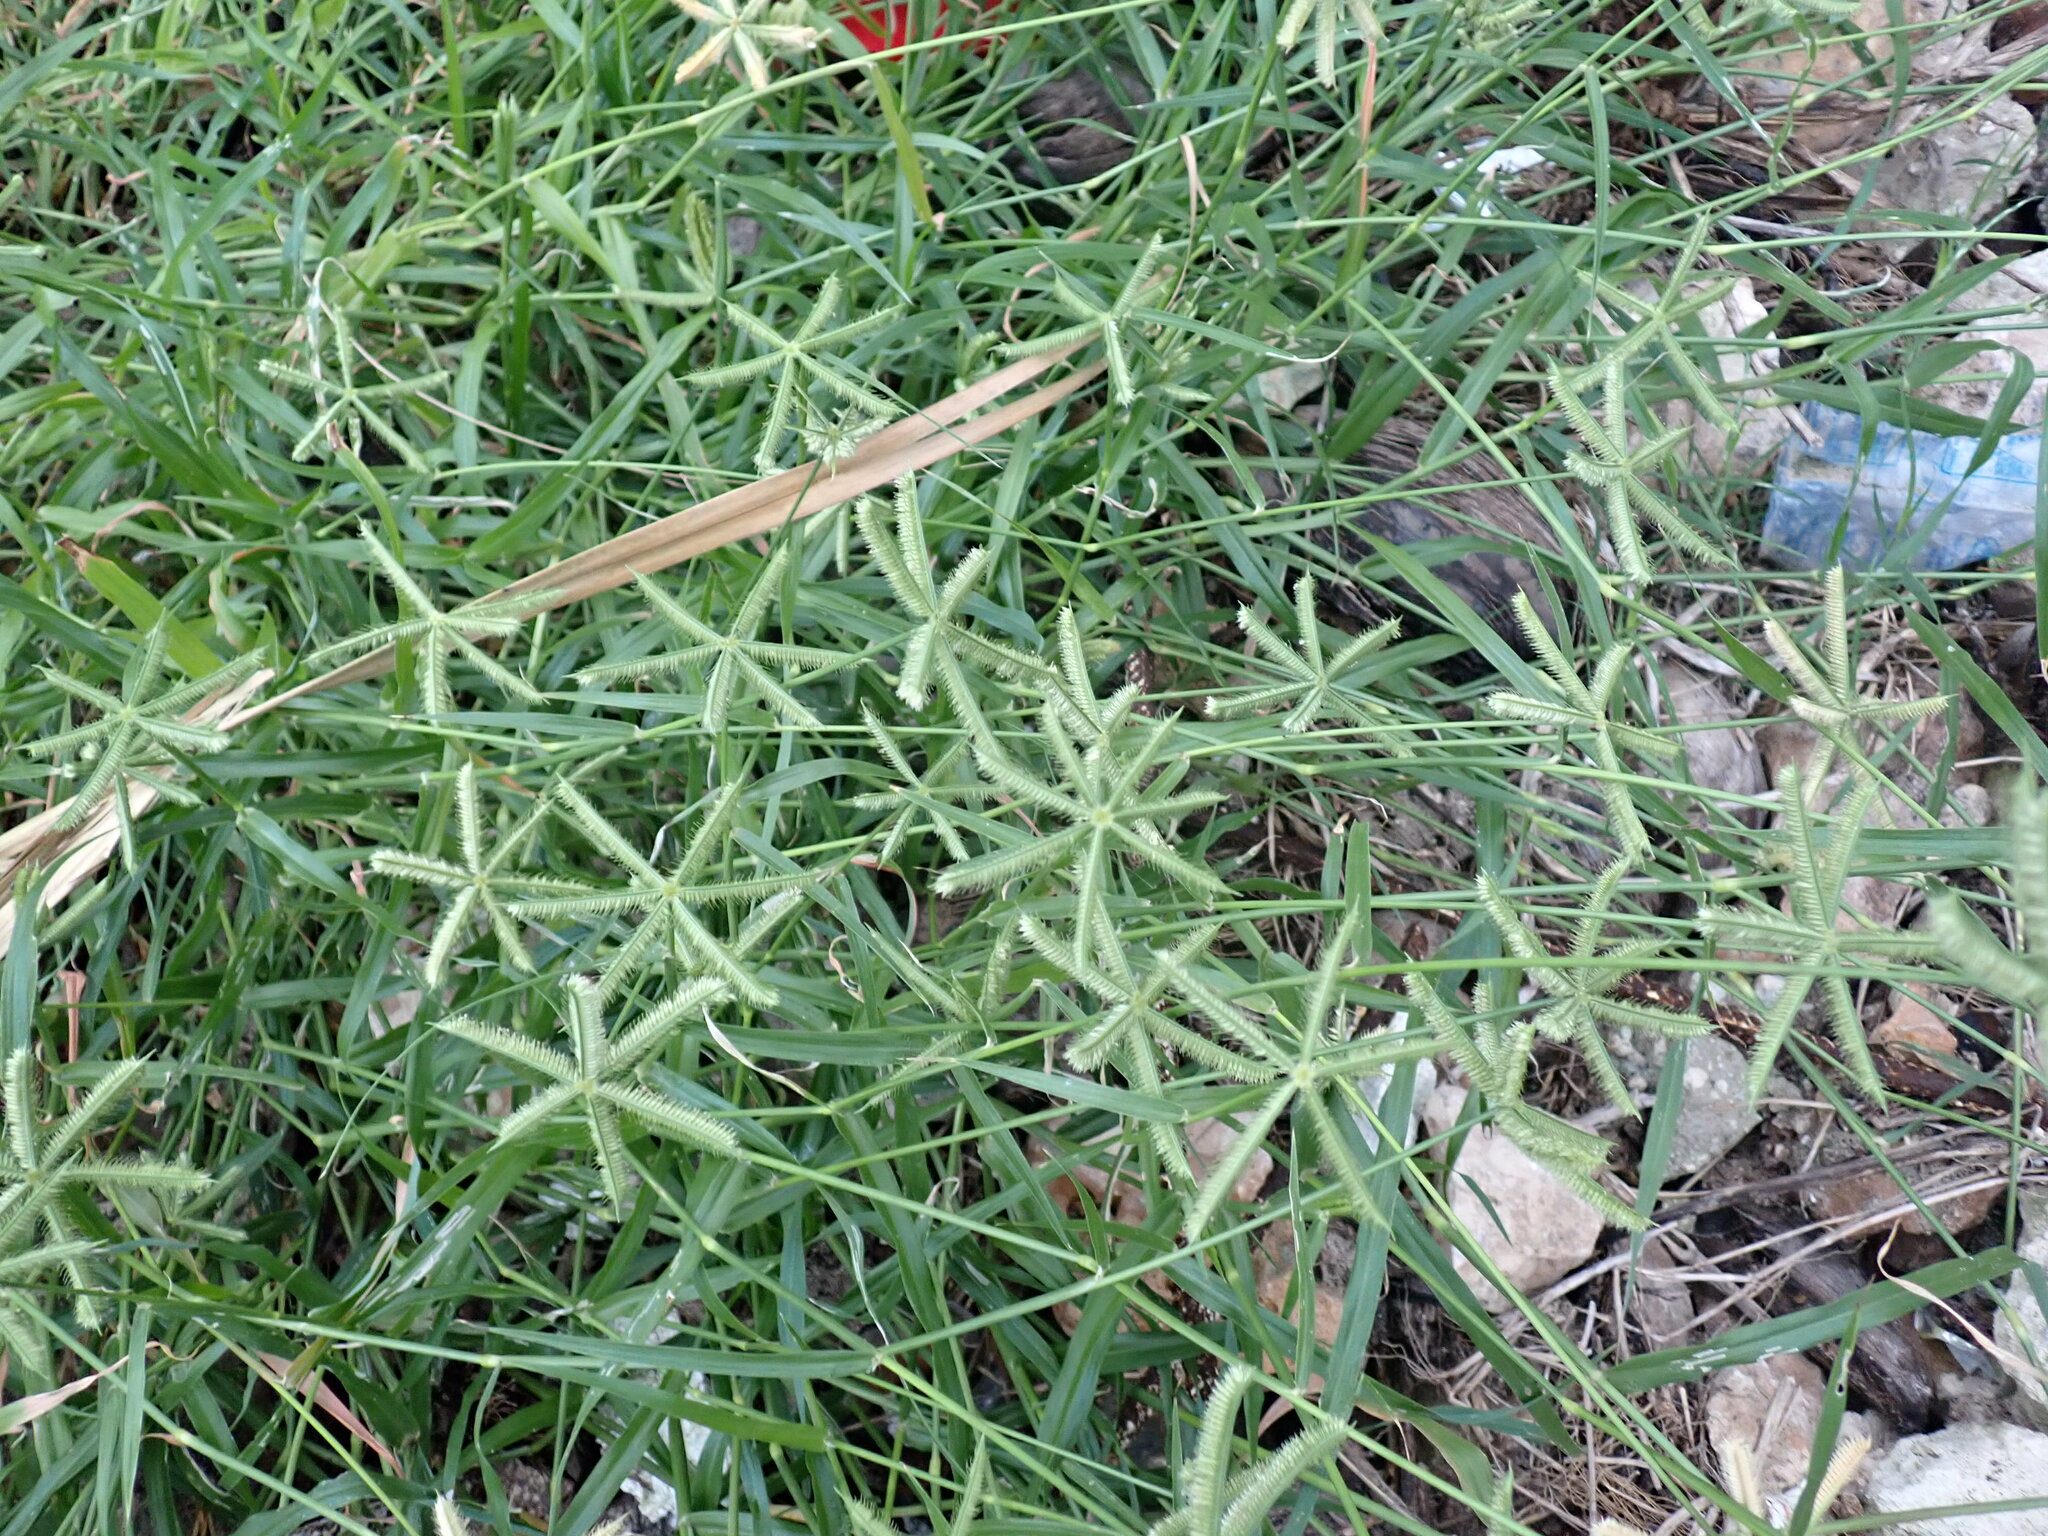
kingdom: Plantae
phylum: Tracheophyta
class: Liliopsida
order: Poales
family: Poaceae
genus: Dactyloctenium
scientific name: Dactyloctenium aegyptium
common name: Egyptian grass
